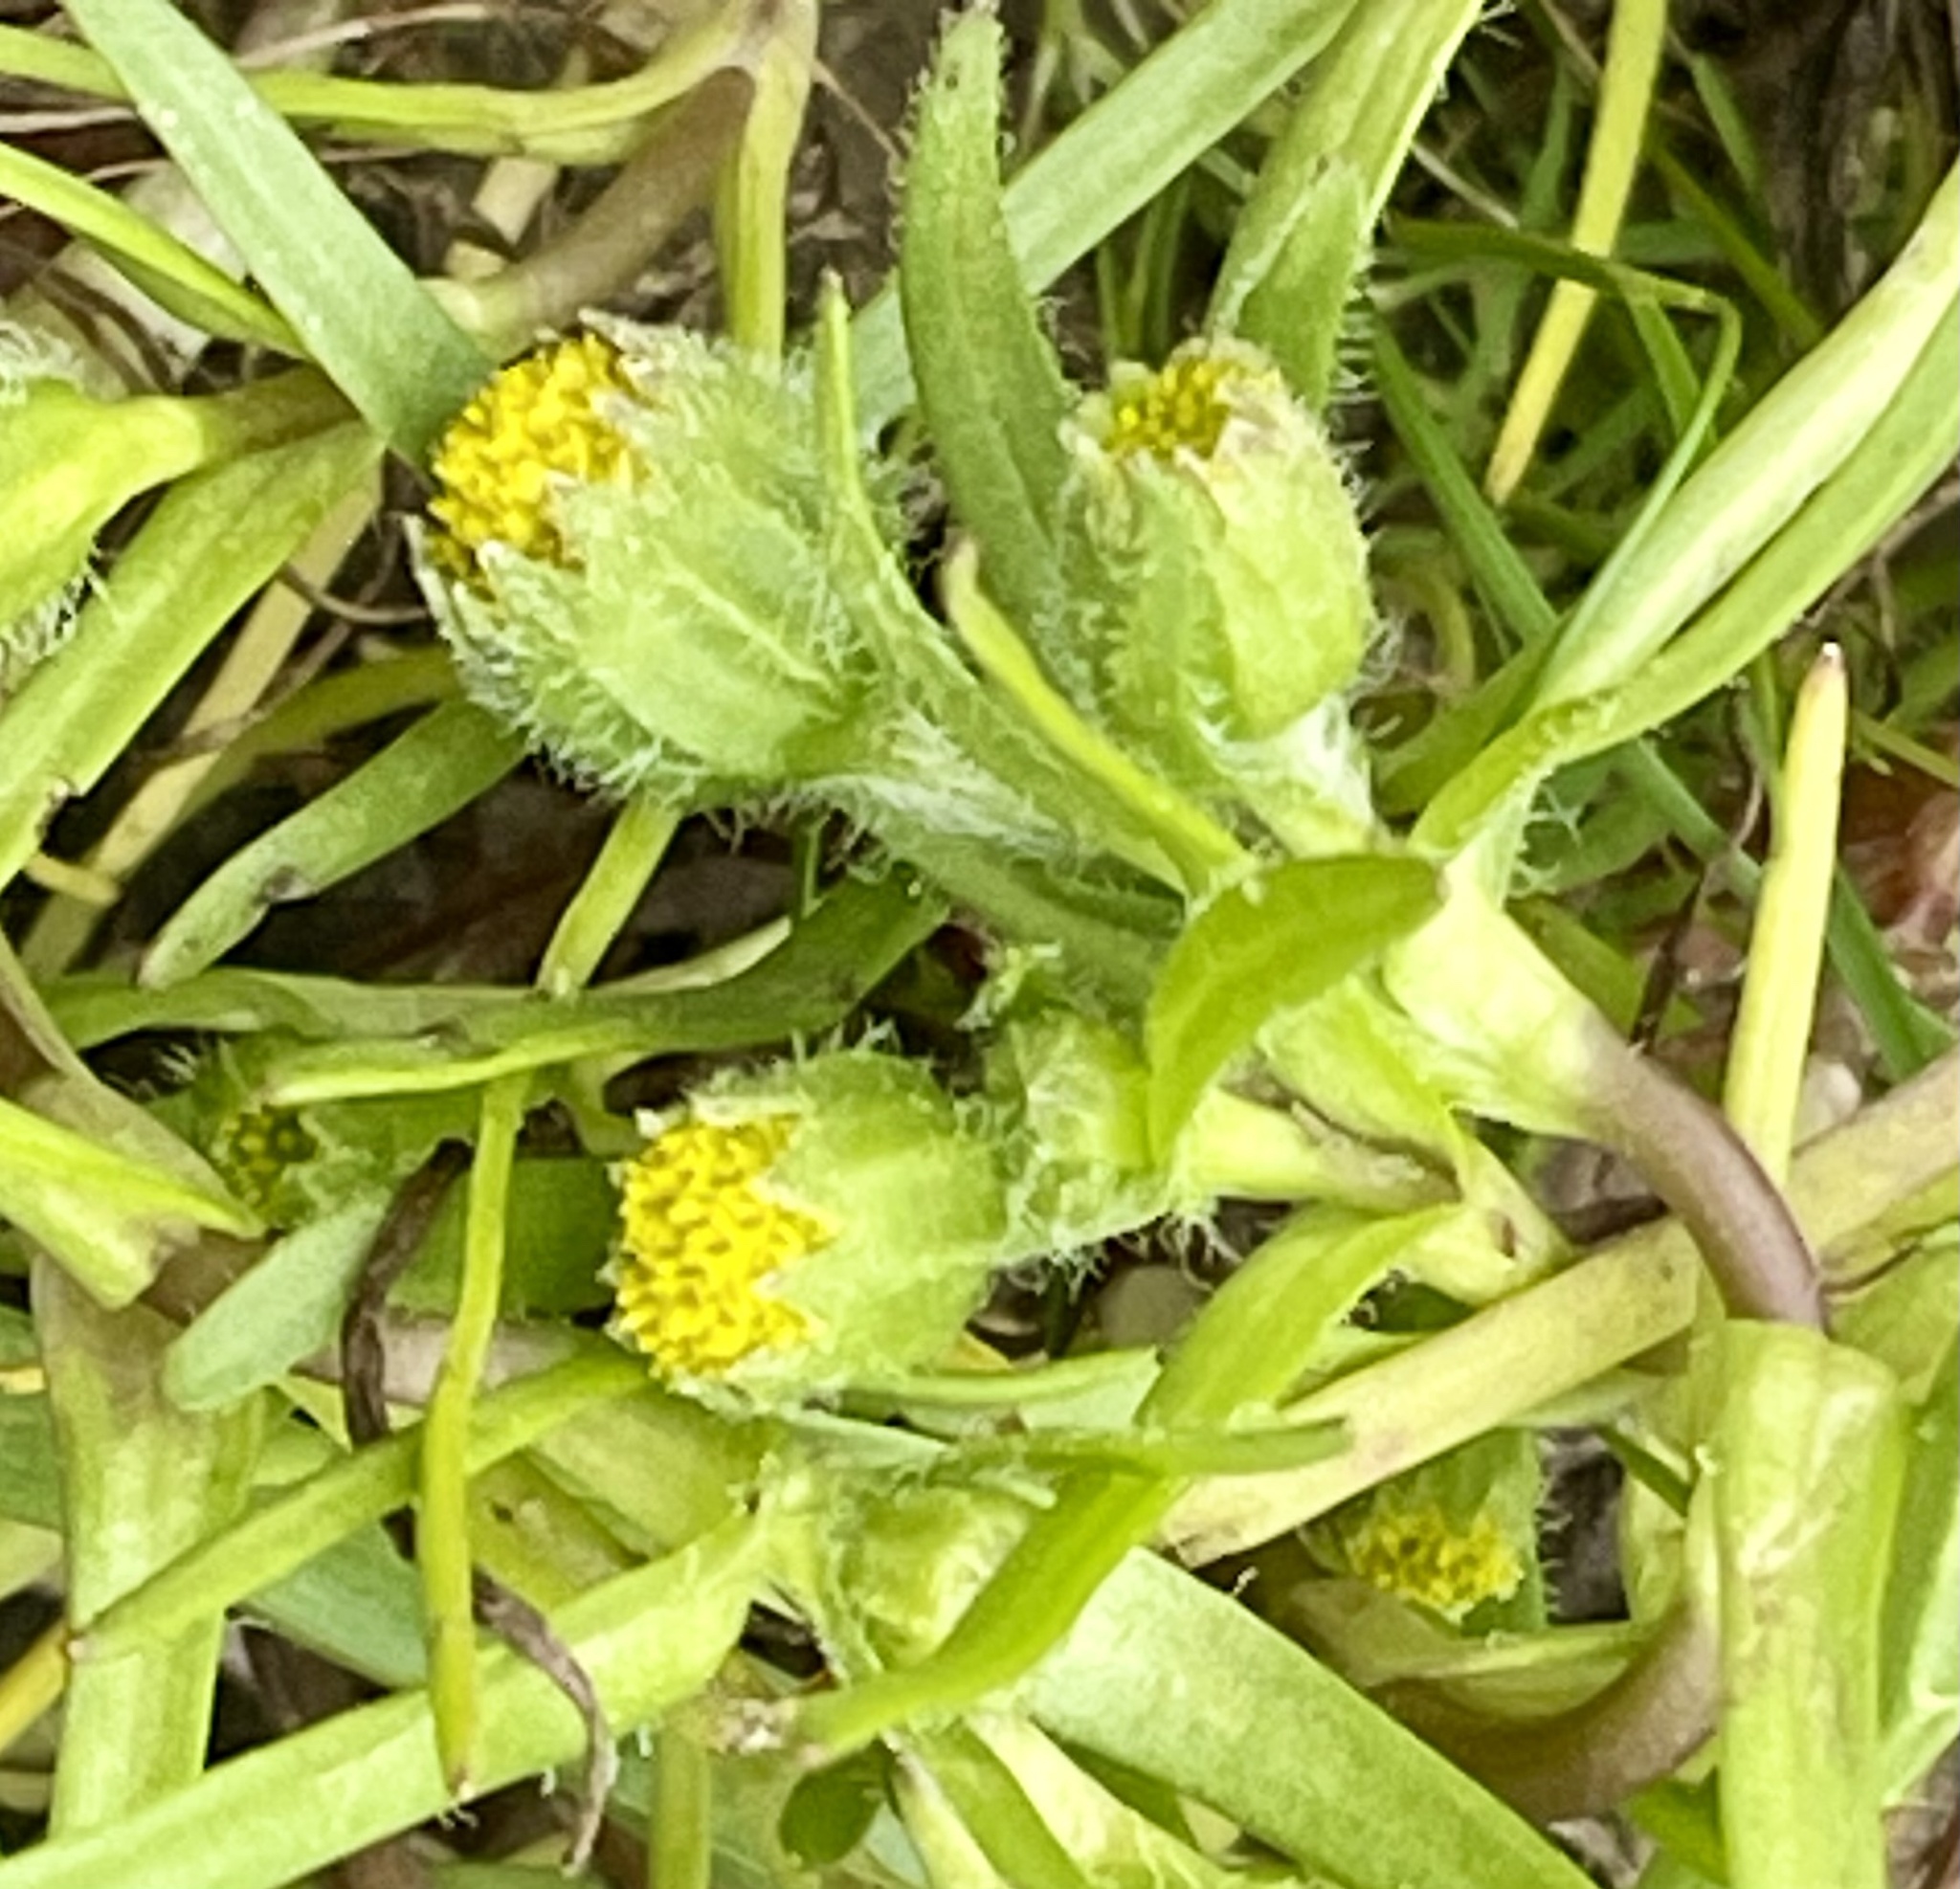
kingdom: Plantae
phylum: Tracheophyta
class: Magnoliopsida
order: Asterales
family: Asteraceae
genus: Lasthenia
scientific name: Lasthenia glaberrima
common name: Smooth goldfields
